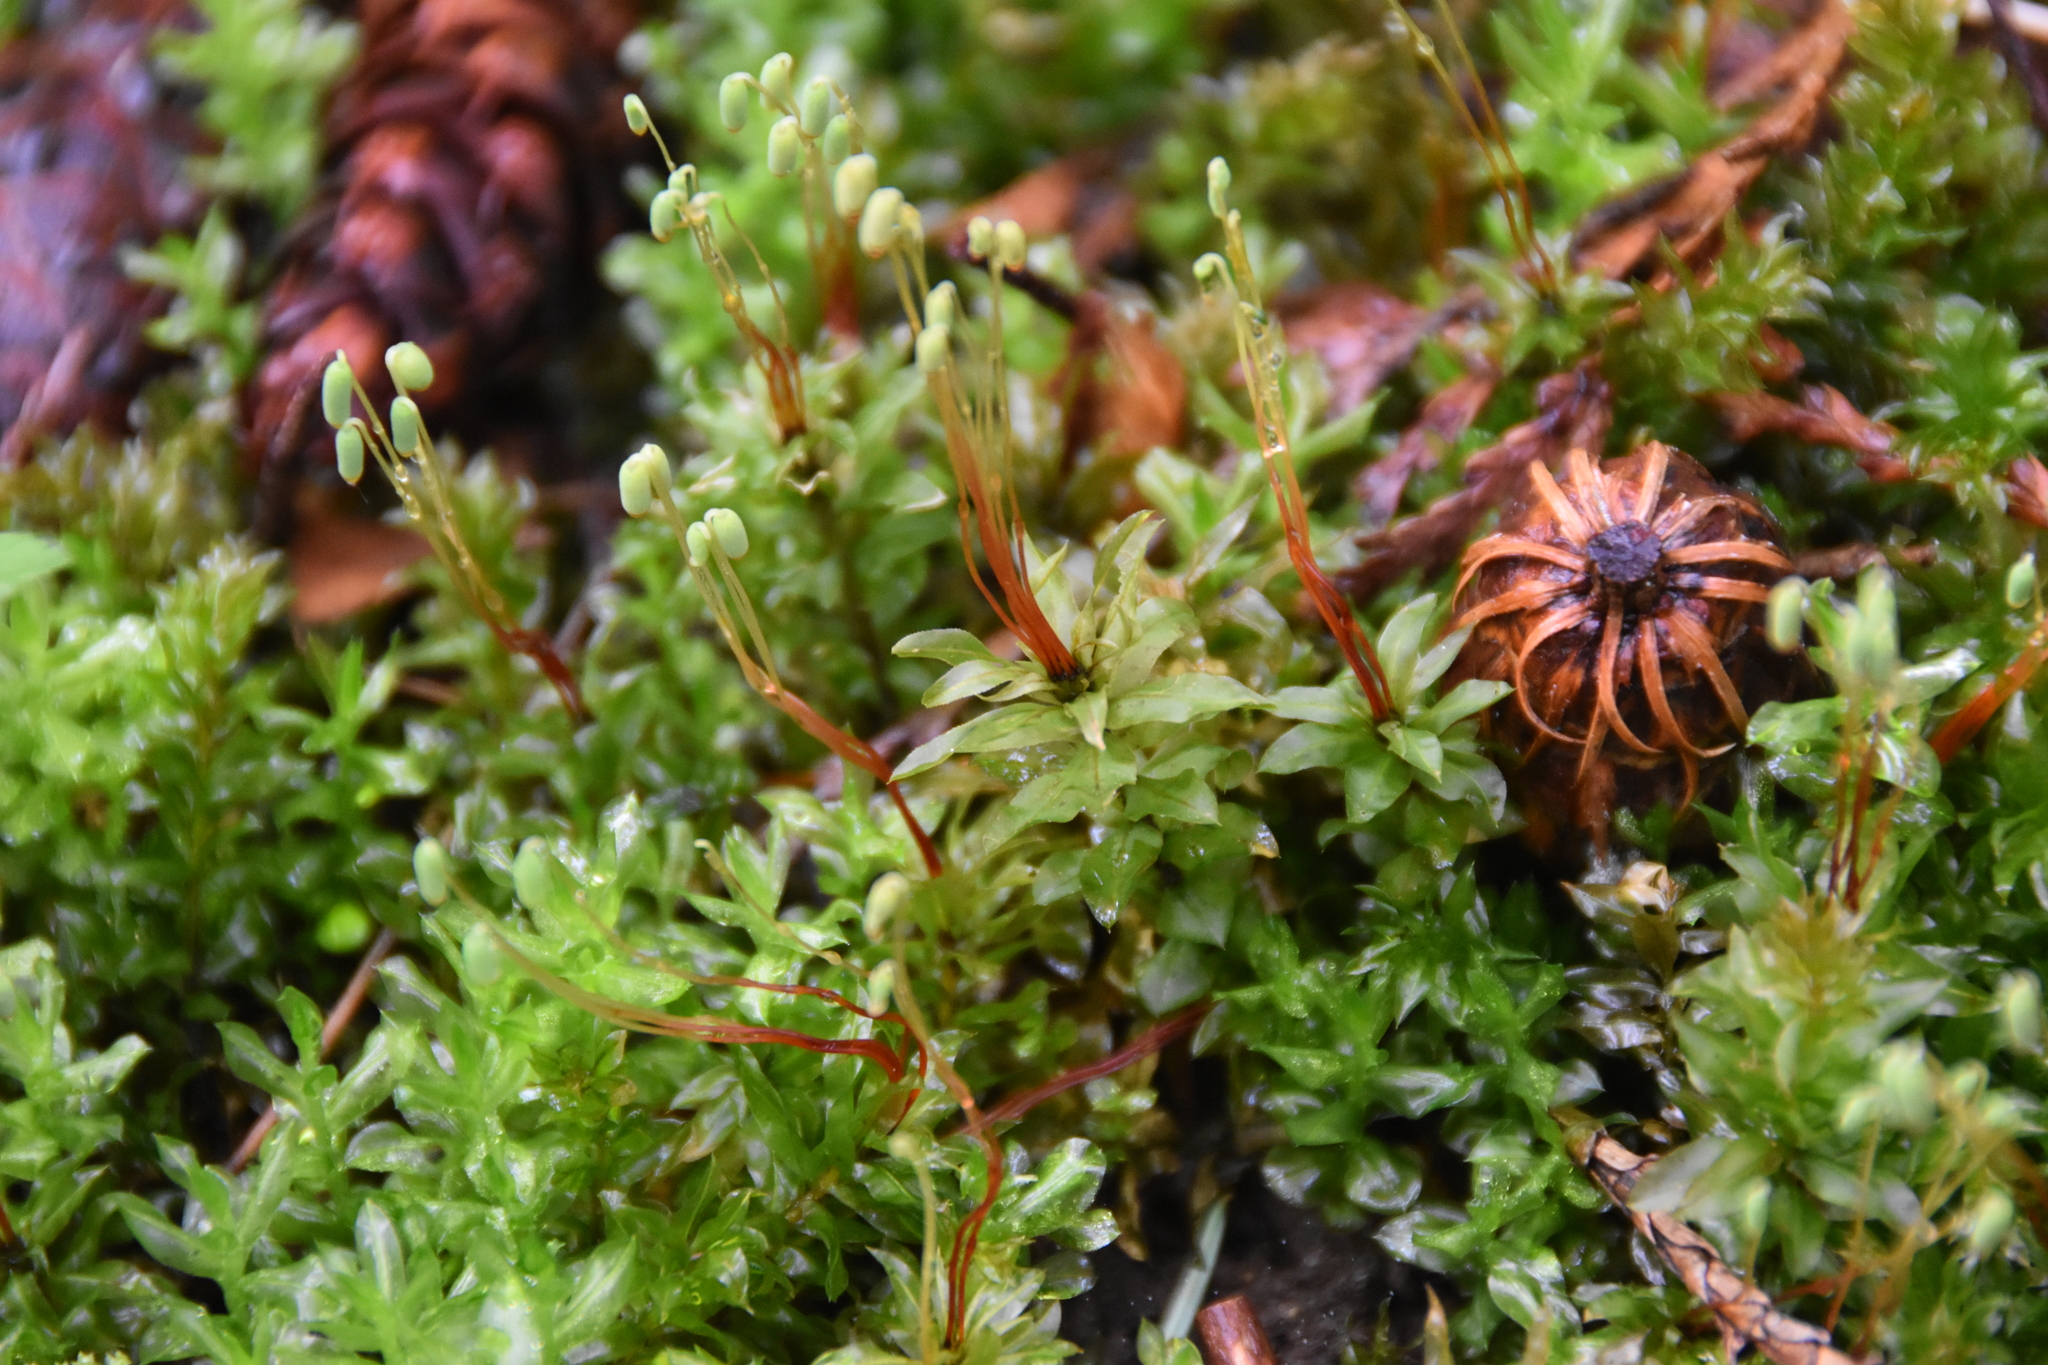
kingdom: Plantae
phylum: Bryophyta
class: Bryopsida
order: Bryales
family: Mniaceae
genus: Plagiomnium
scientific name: Plagiomnium insigne
